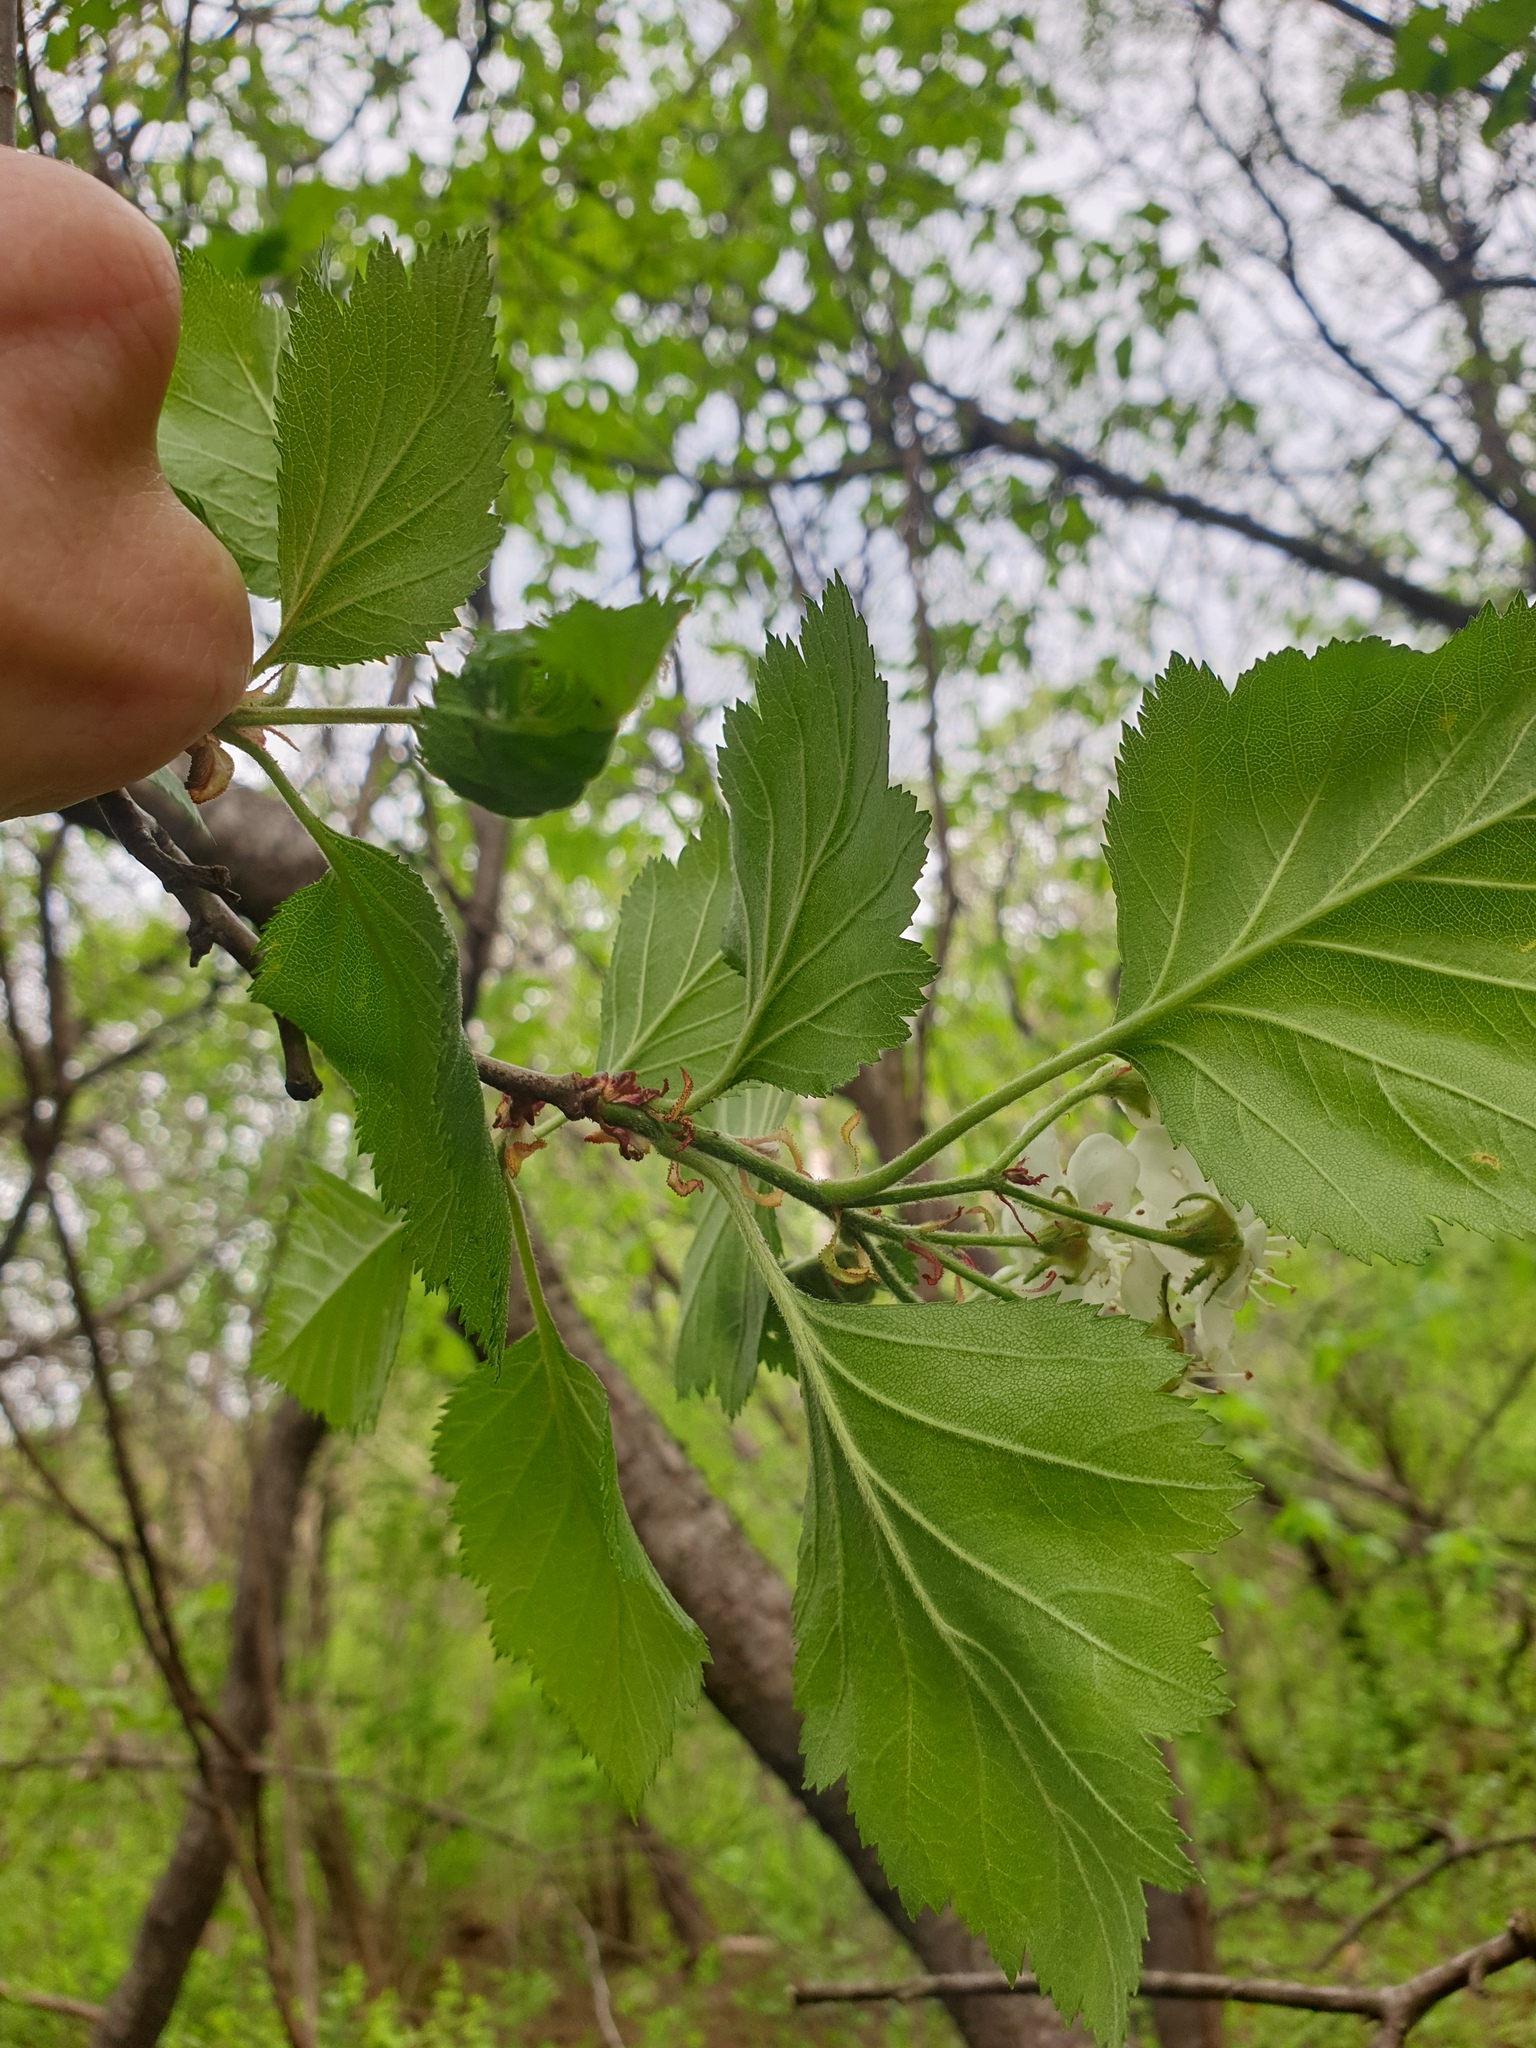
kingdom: Plantae
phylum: Tracheophyta
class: Magnoliopsida
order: Rosales
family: Rosaceae
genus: Crataegus
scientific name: Crataegus submollis
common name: Hairy cockspurthorn
